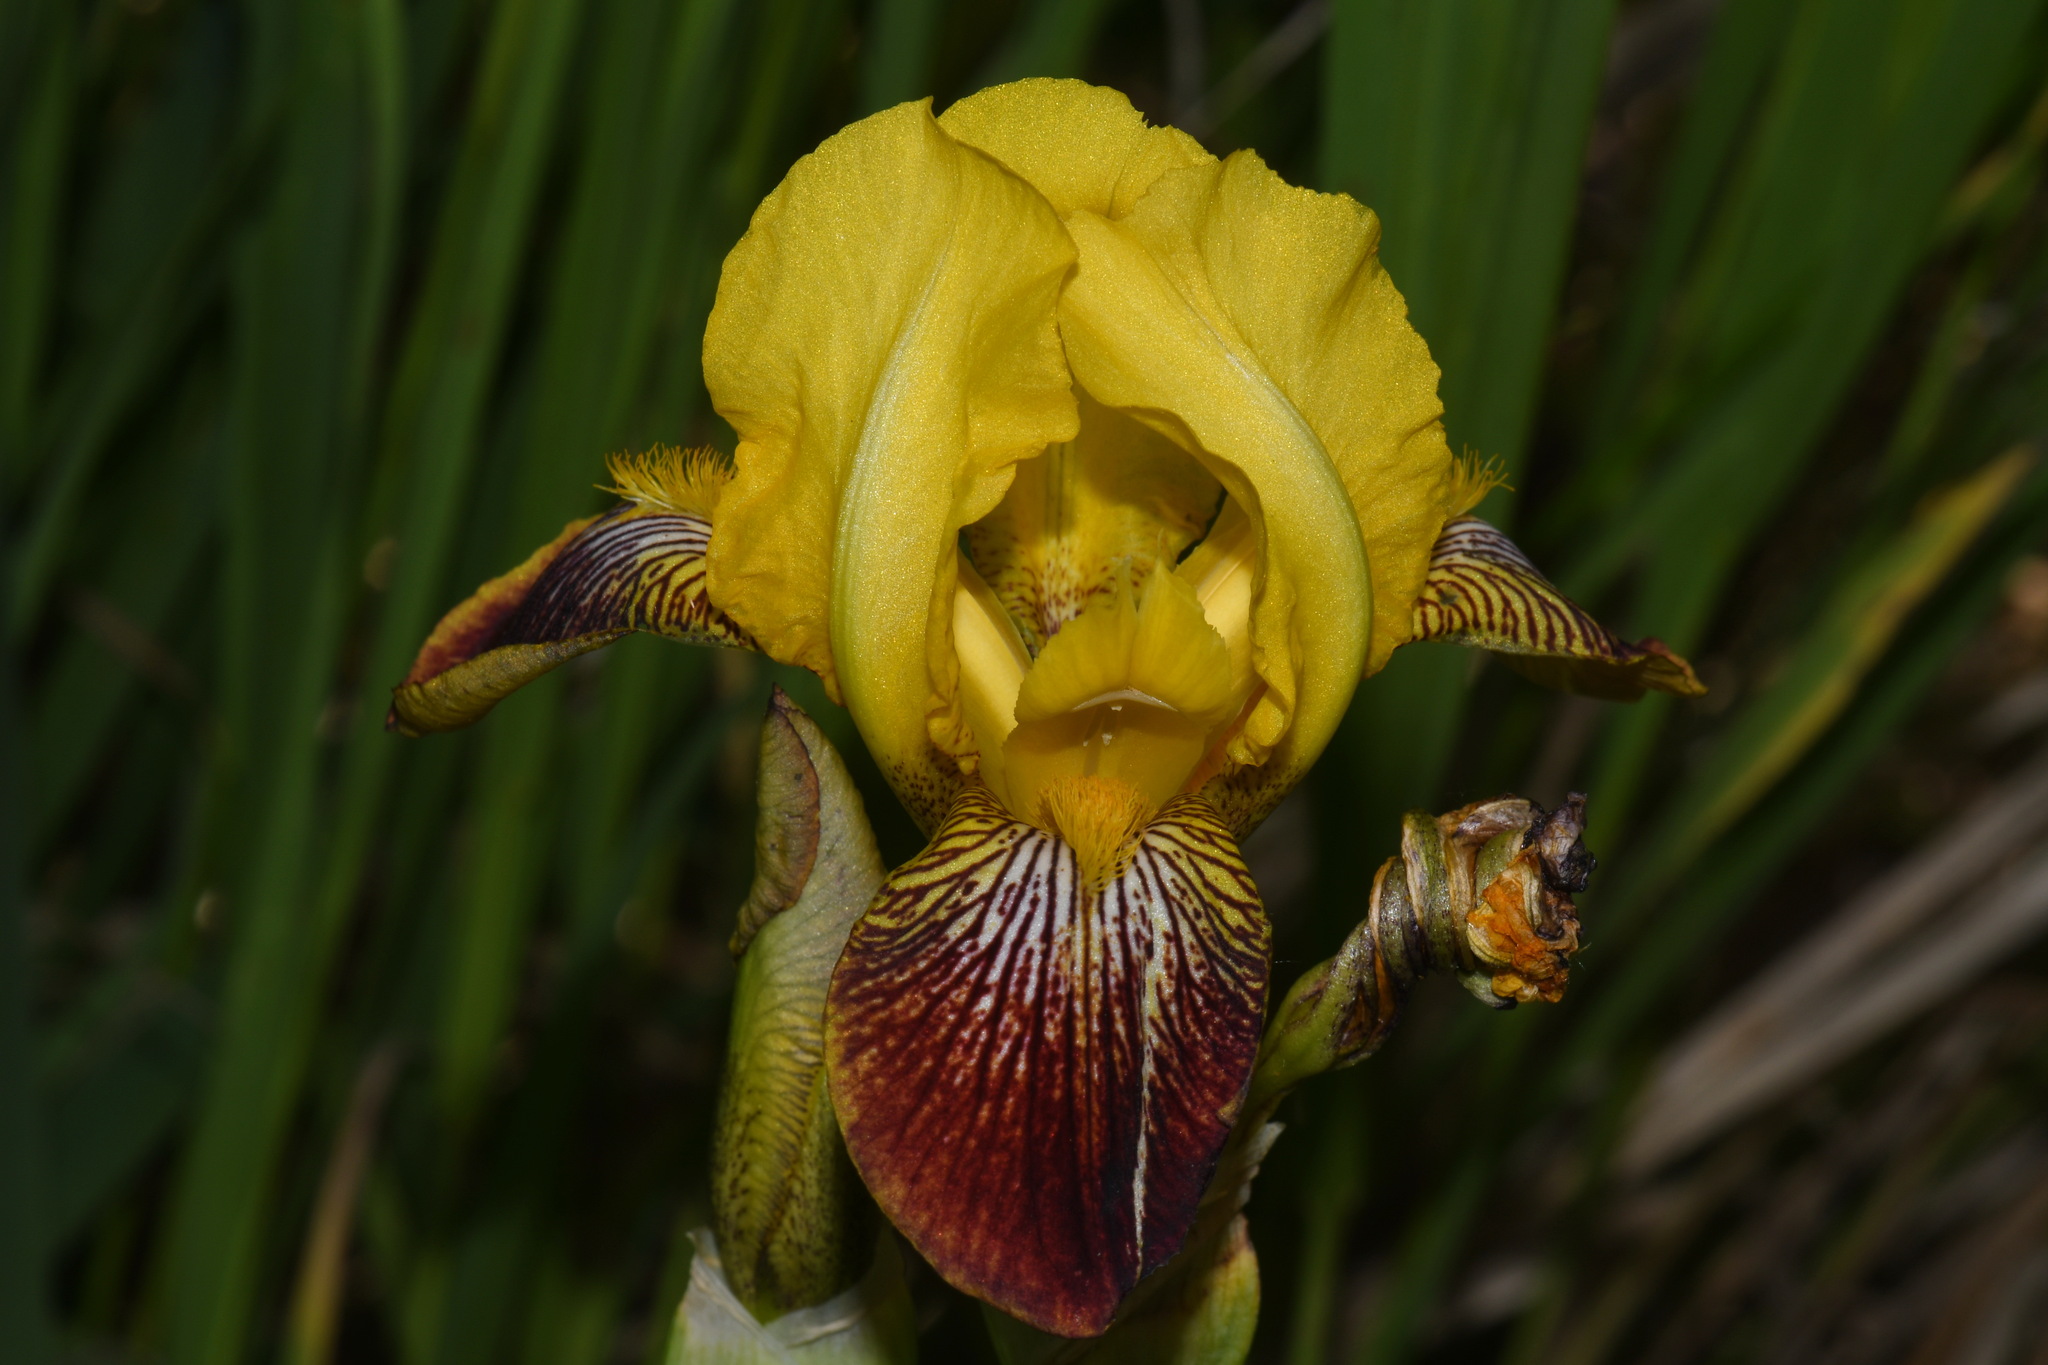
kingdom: Plantae
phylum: Tracheophyta
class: Liliopsida
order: Asparagales
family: Iridaceae
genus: Iris
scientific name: Iris hybrida
